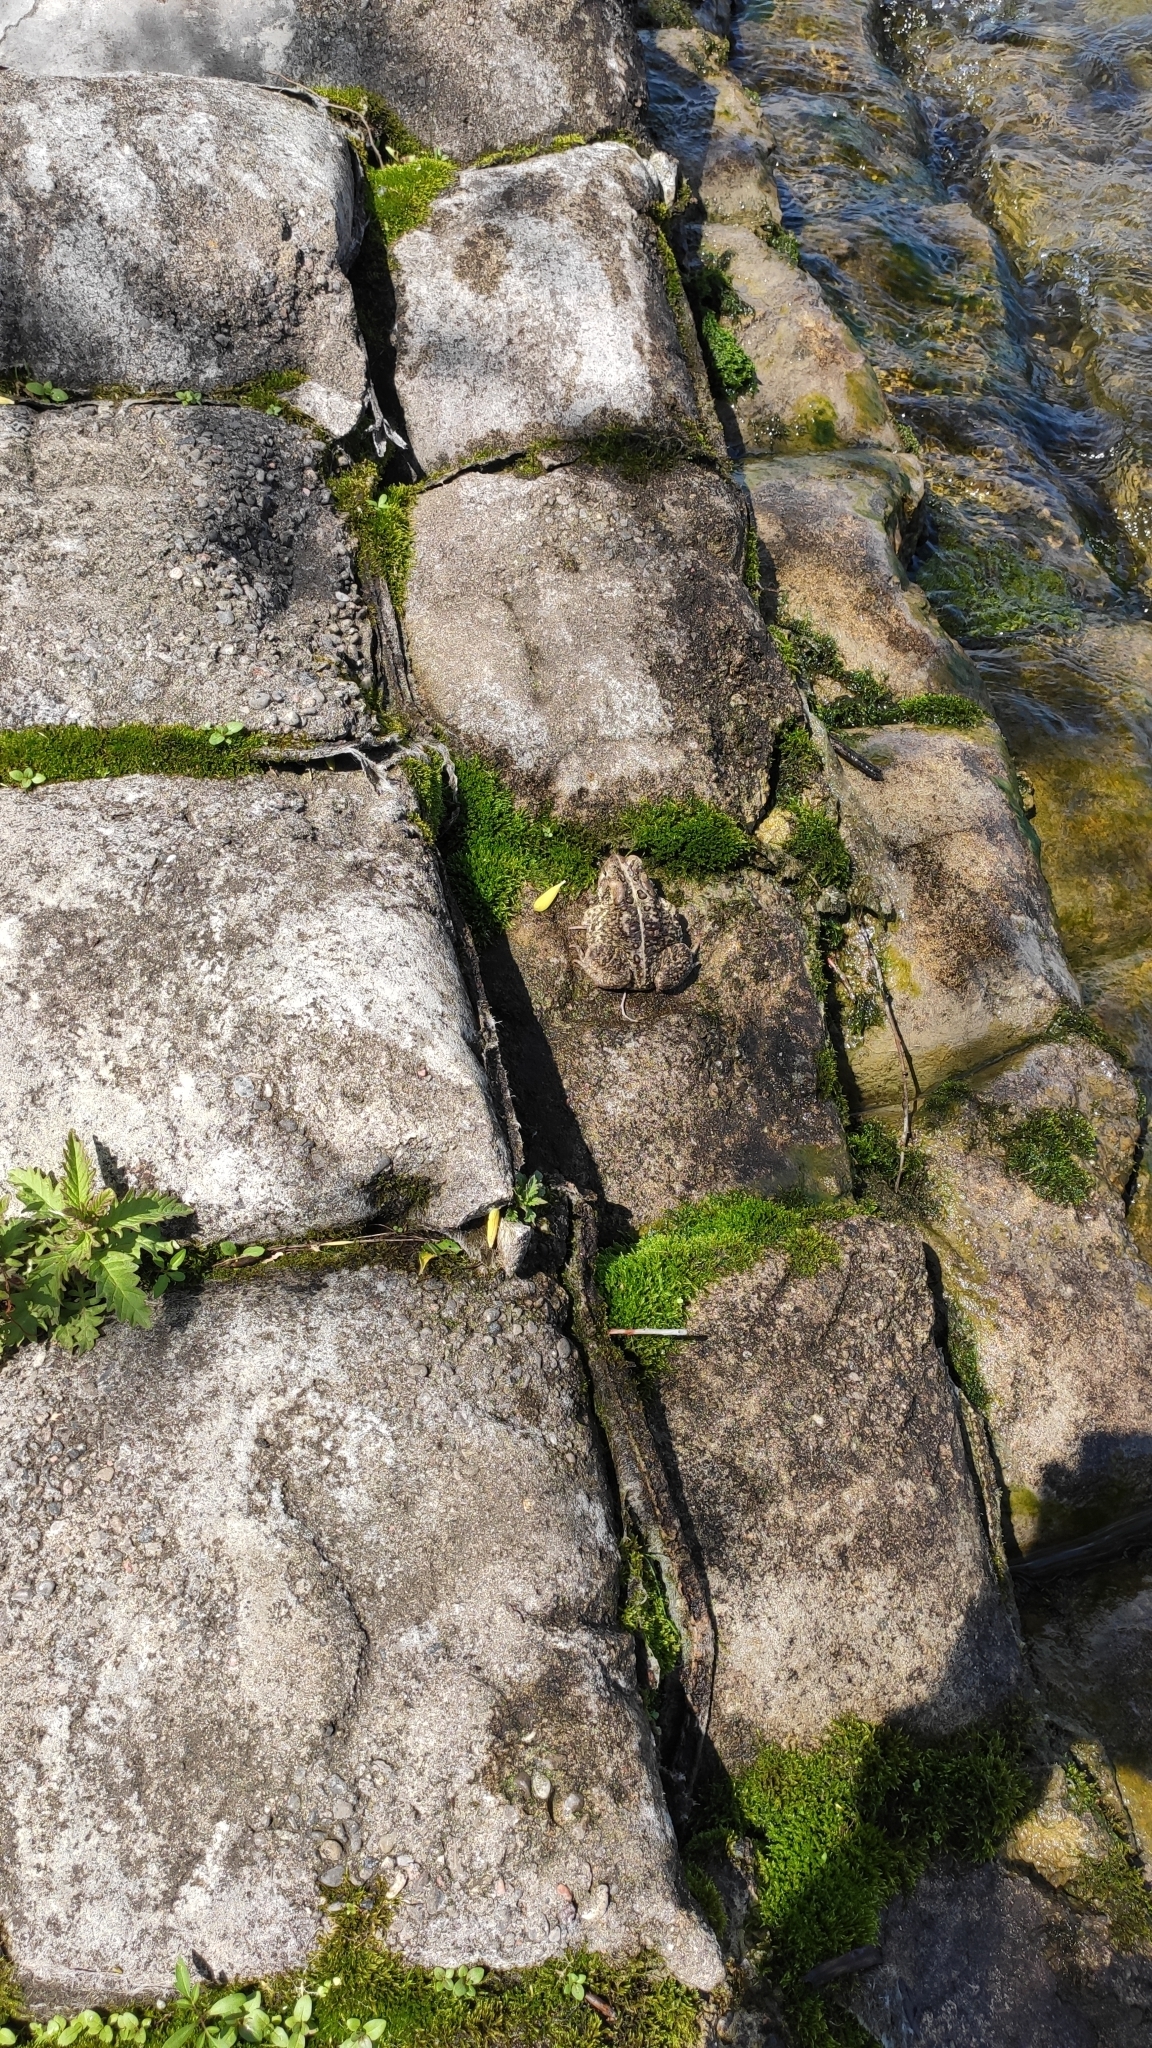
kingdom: Animalia
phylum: Chordata
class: Amphibia
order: Anura
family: Bufonidae
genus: Anaxyrus
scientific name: Anaxyrus americanus
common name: American toad
